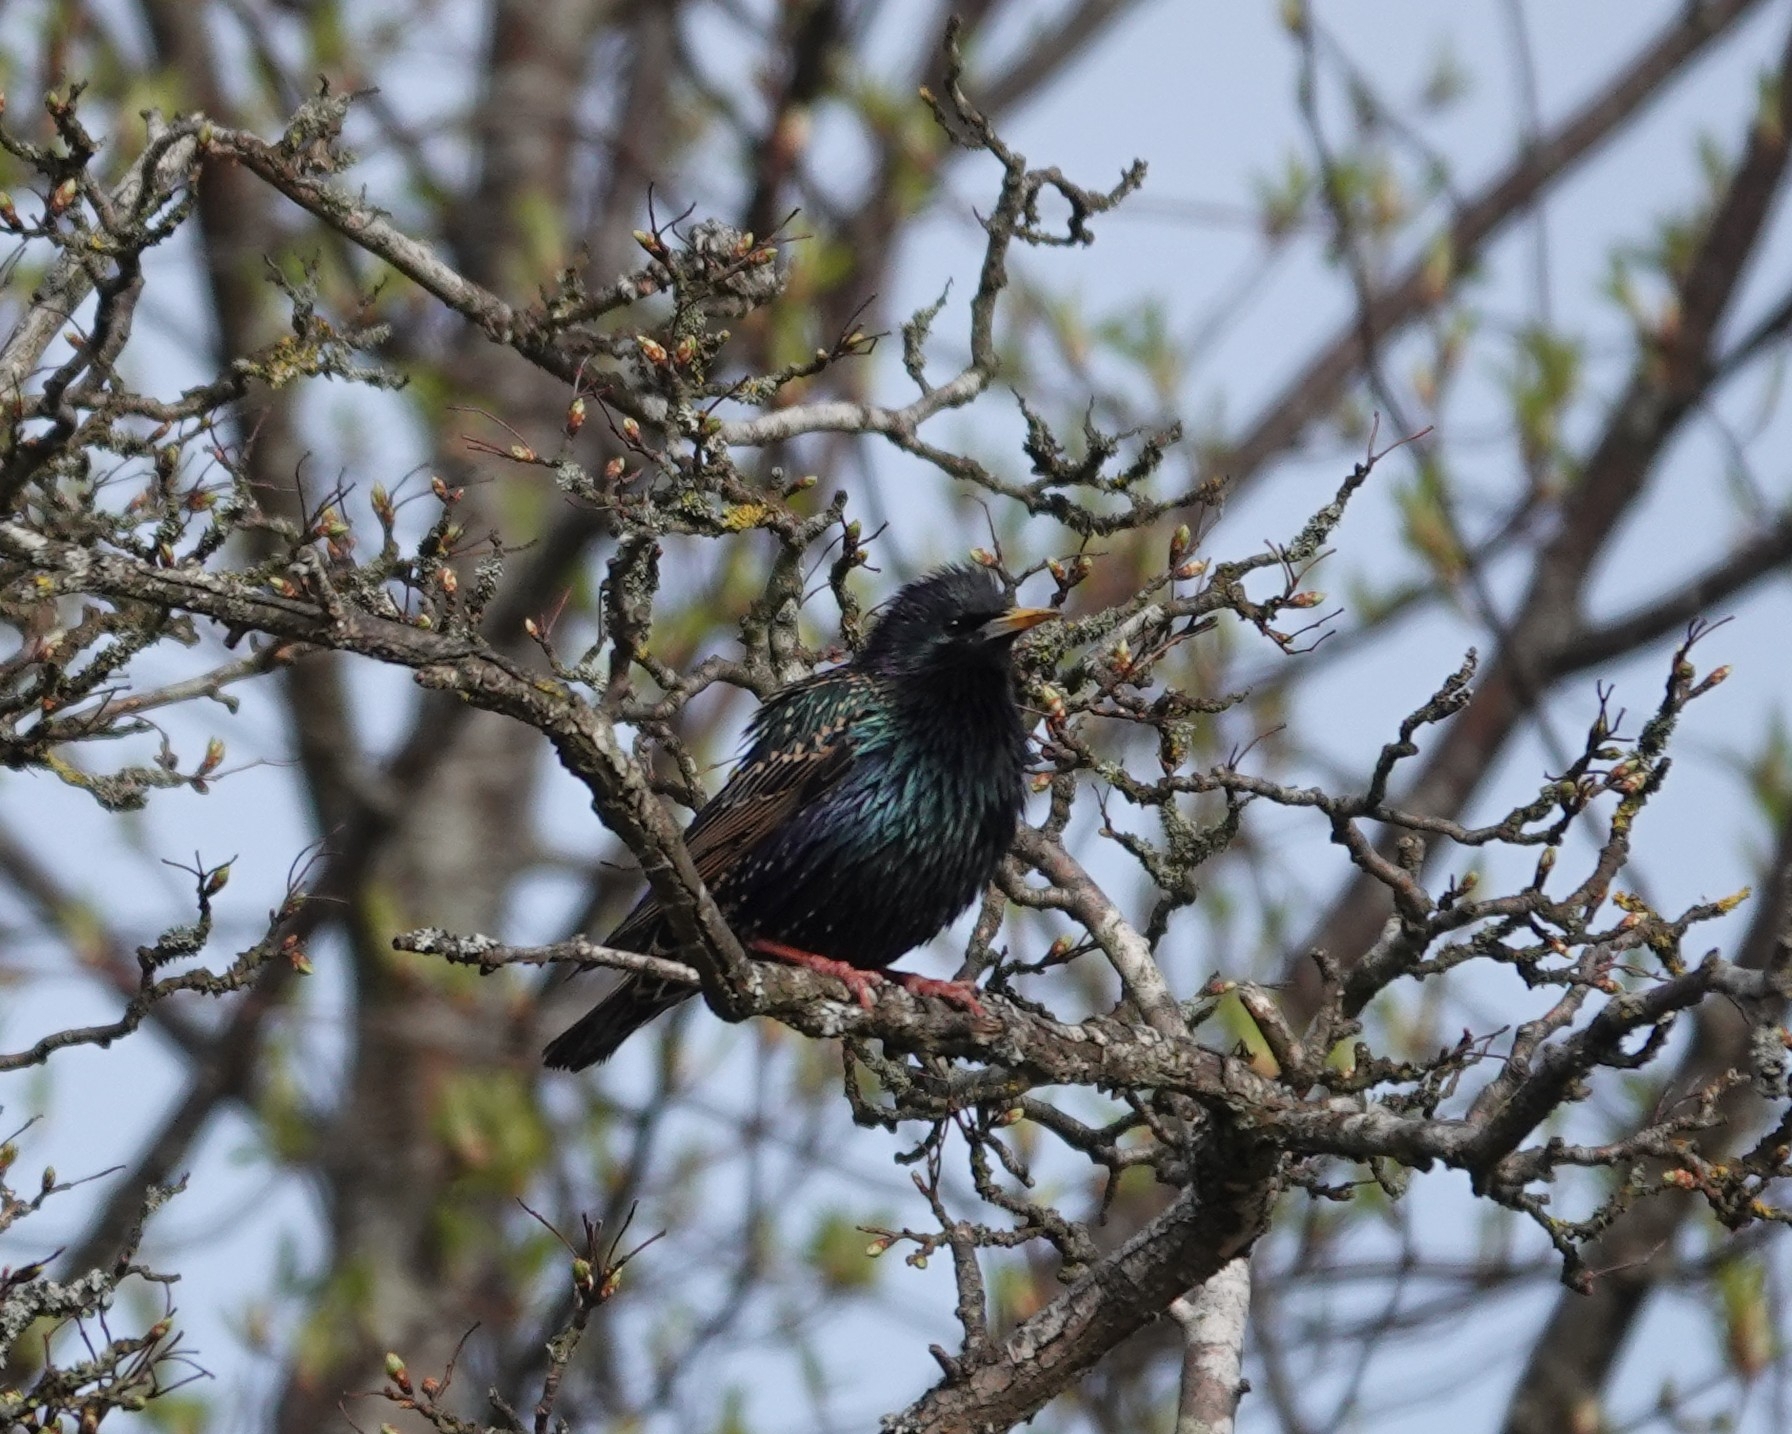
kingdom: Animalia
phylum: Chordata
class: Aves
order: Passeriformes
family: Sturnidae
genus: Sturnus
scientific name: Sturnus vulgaris
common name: Common starling
